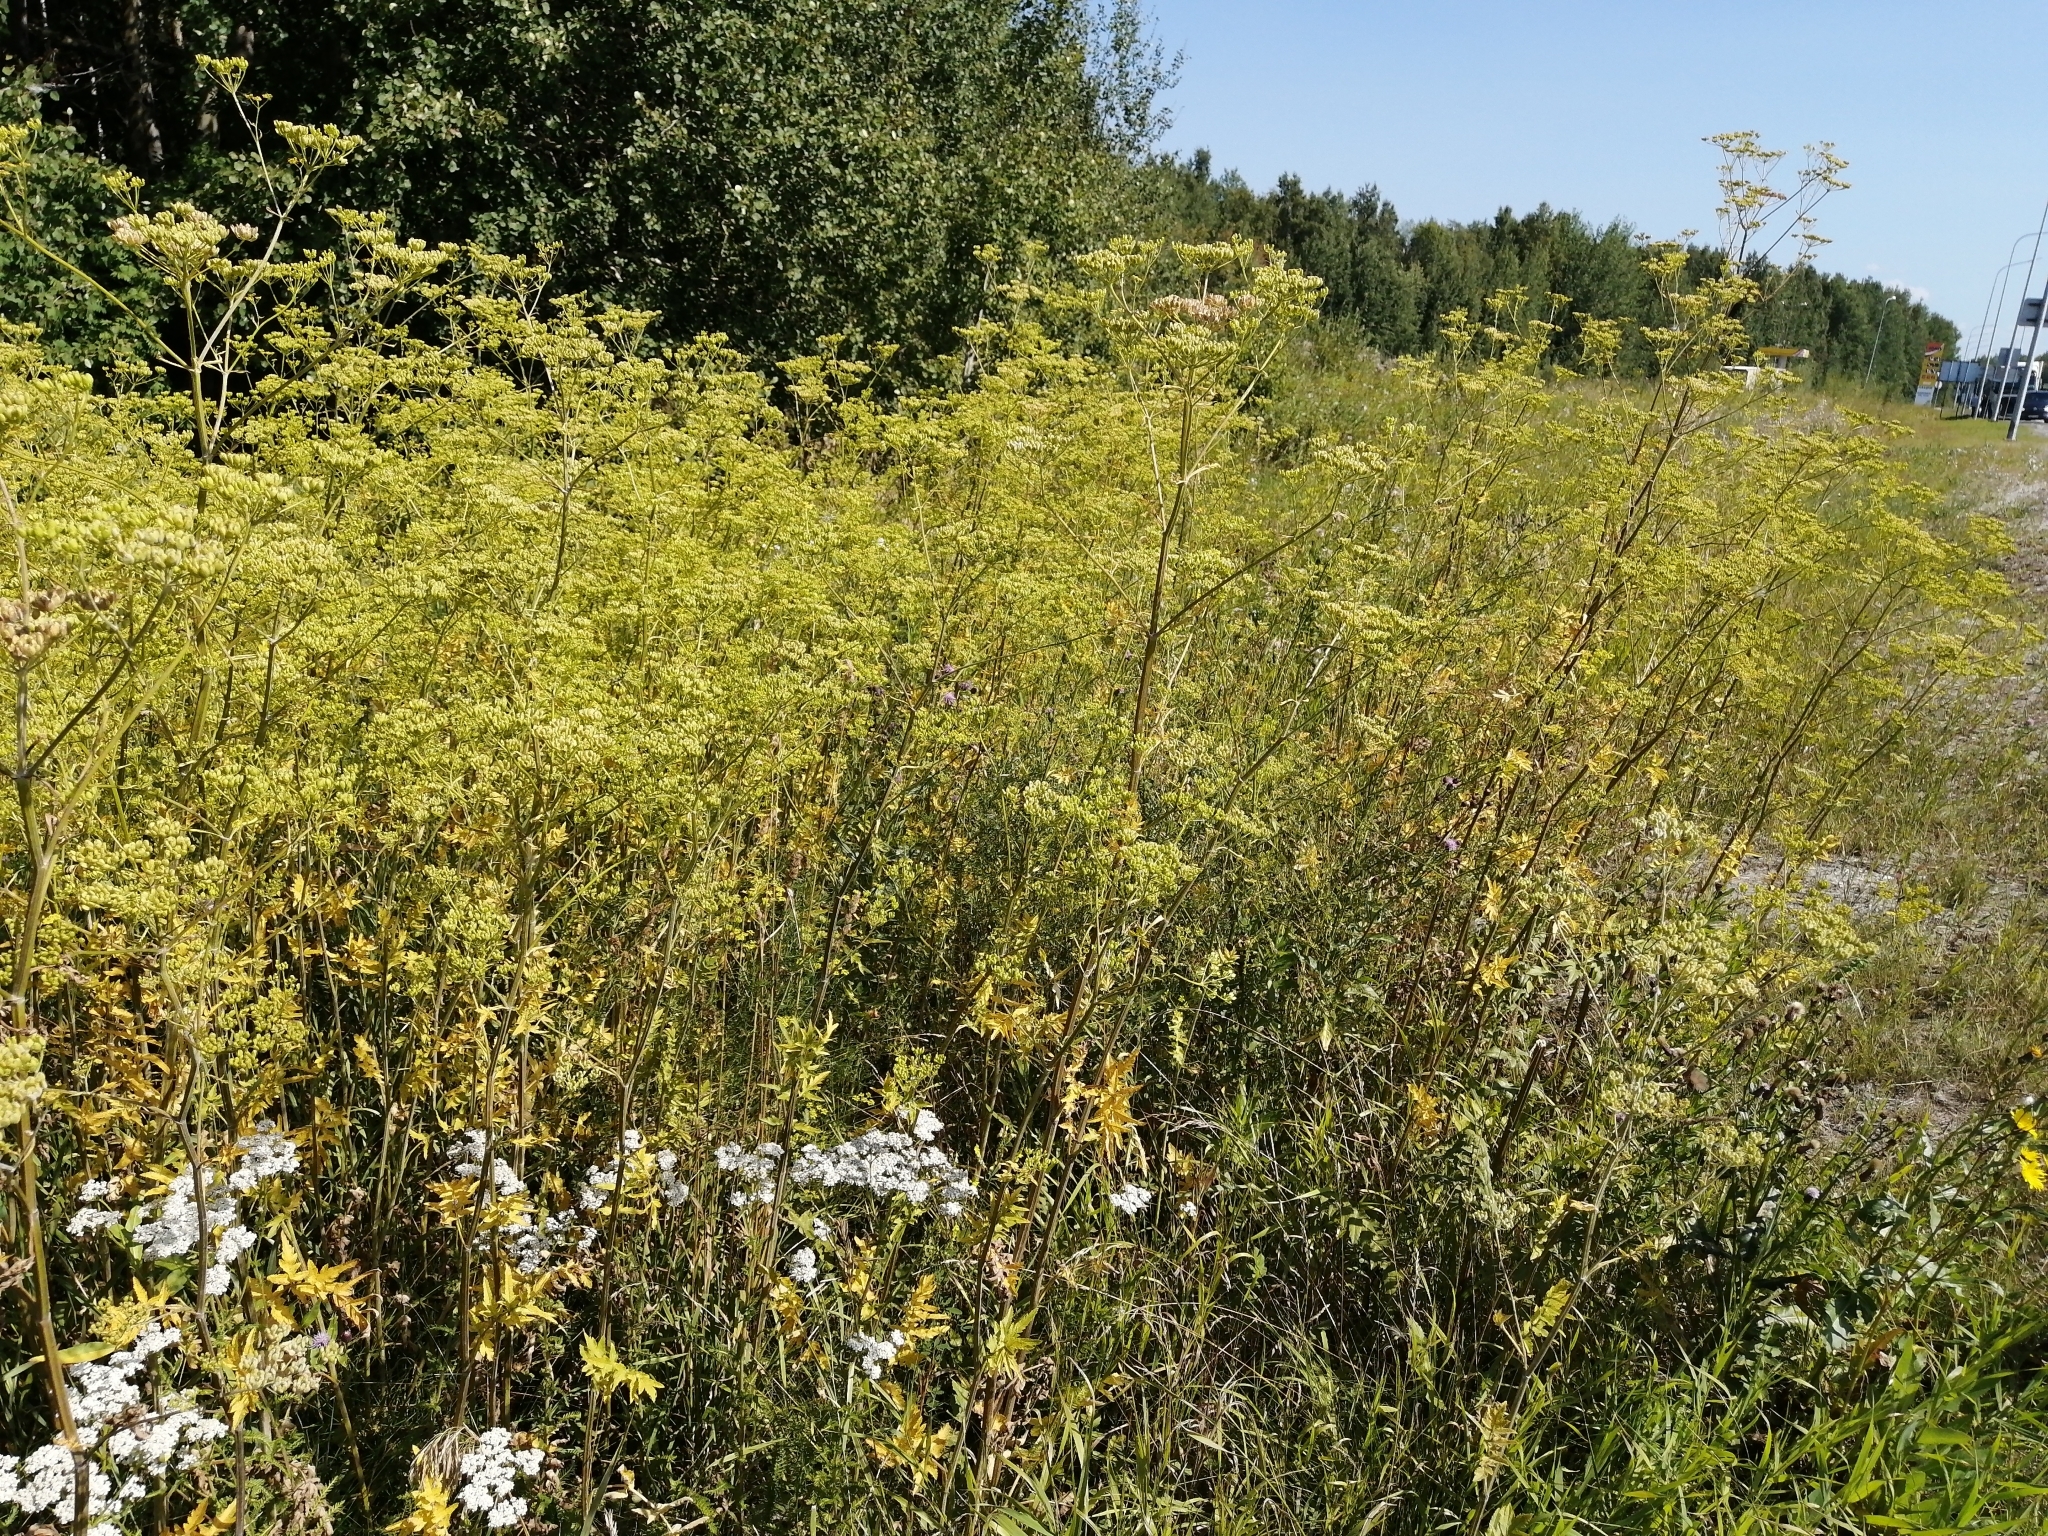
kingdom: Plantae
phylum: Tracheophyta
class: Magnoliopsida
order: Apiales
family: Apiaceae
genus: Pastinaca
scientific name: Pastinaca sativa
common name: Wild parsnip
